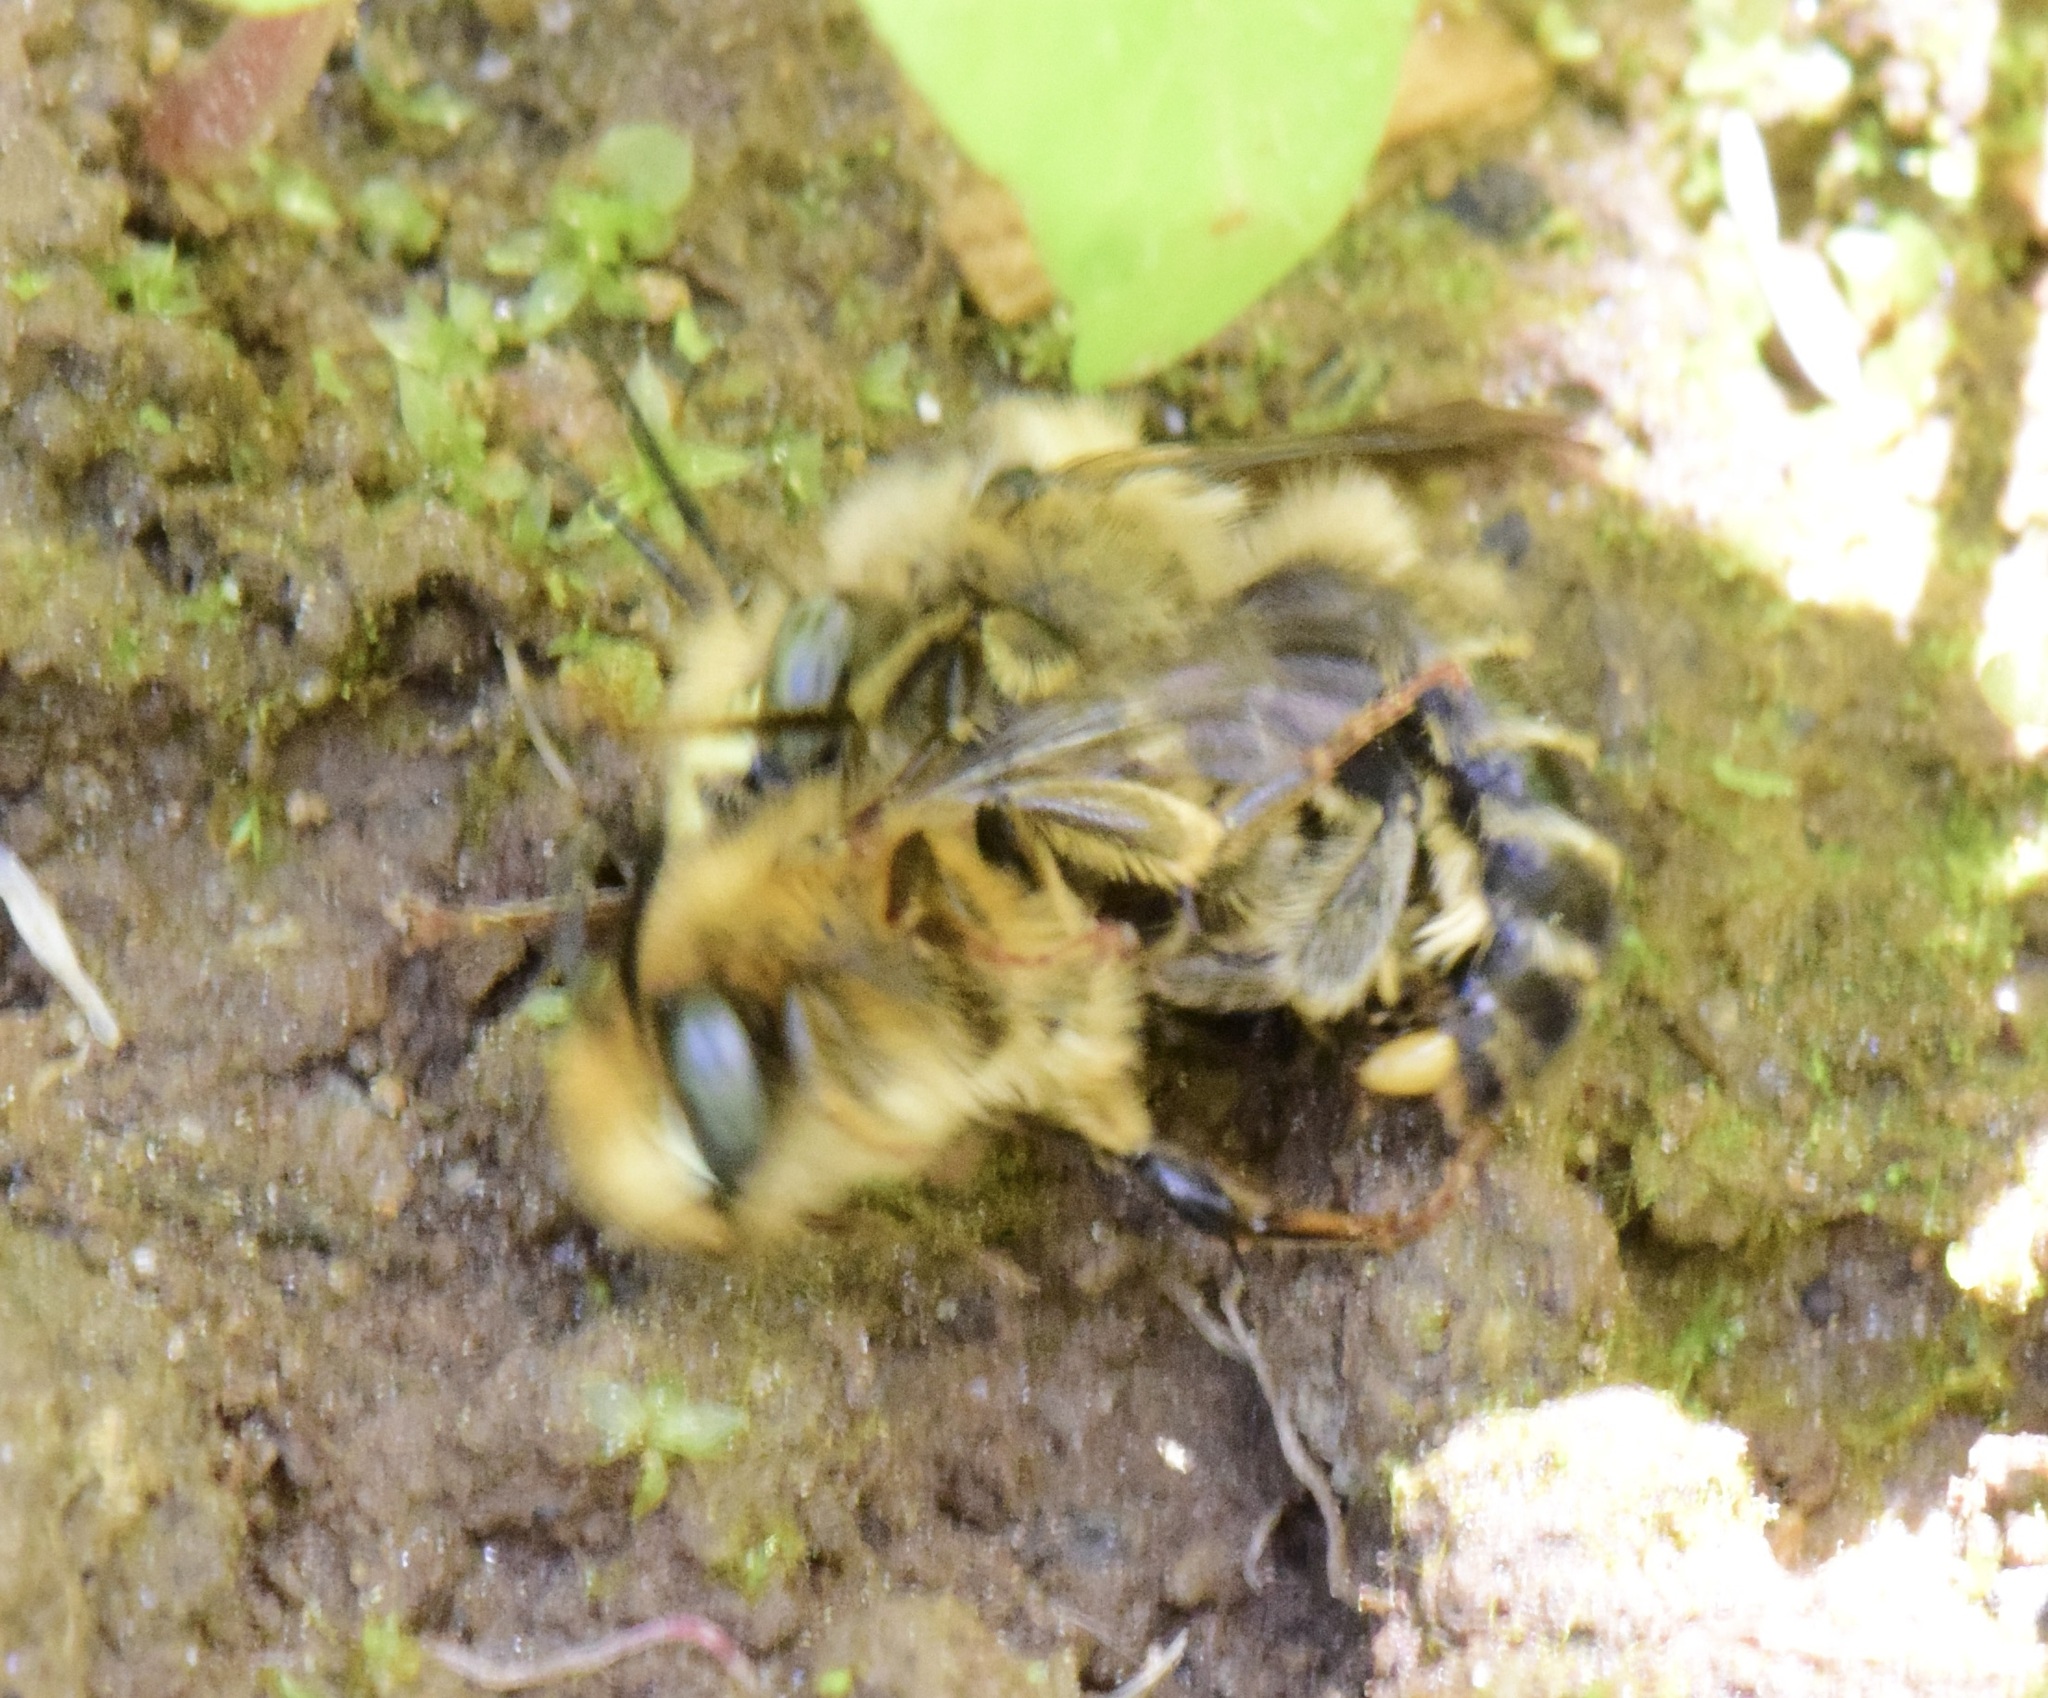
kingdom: Animalia
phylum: Arthropoda
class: Insecta
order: Hymenoptera
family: Apidae
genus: Anthophora
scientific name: Anthophora terminalis
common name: Orange-tipped wood-digger bee
